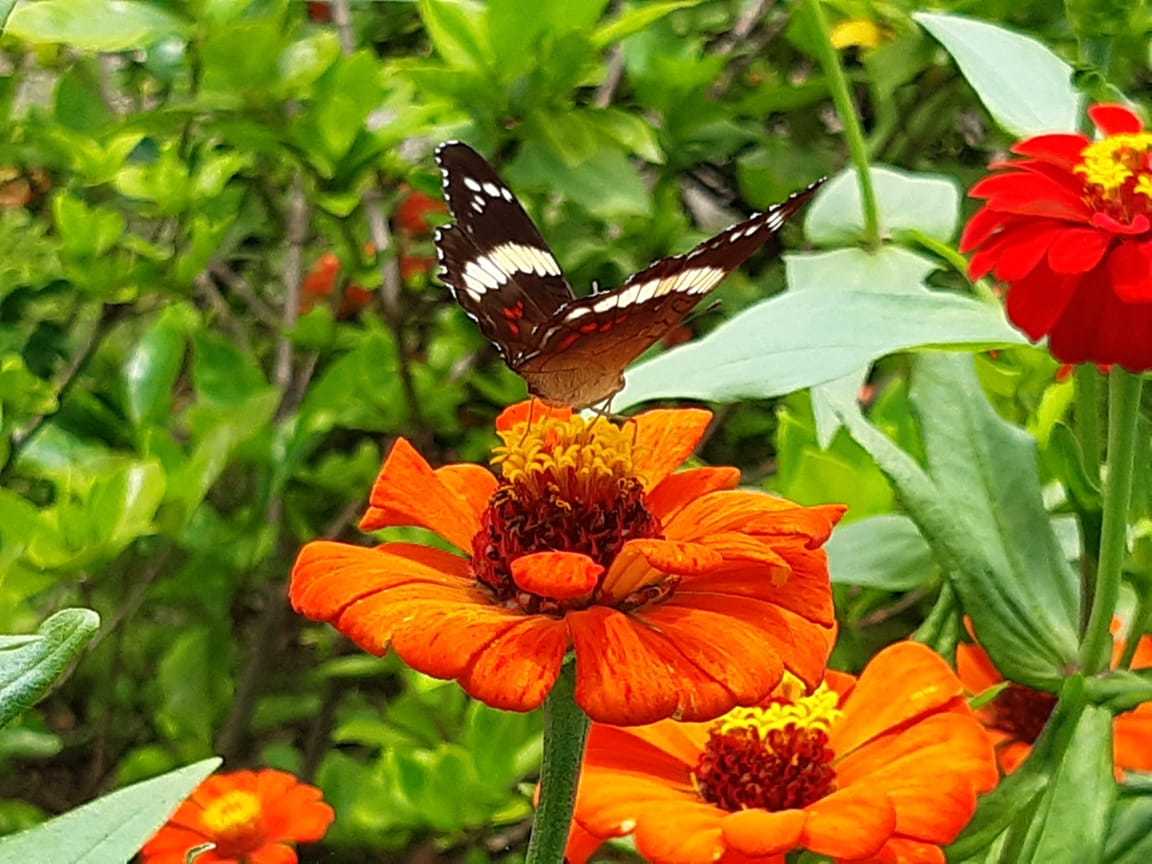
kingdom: Animalia
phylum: Arthropoda
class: Insecta
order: Lepidoptera
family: Nymphalidae
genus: Anartia
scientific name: Anartia fatima
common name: Banded peacock
